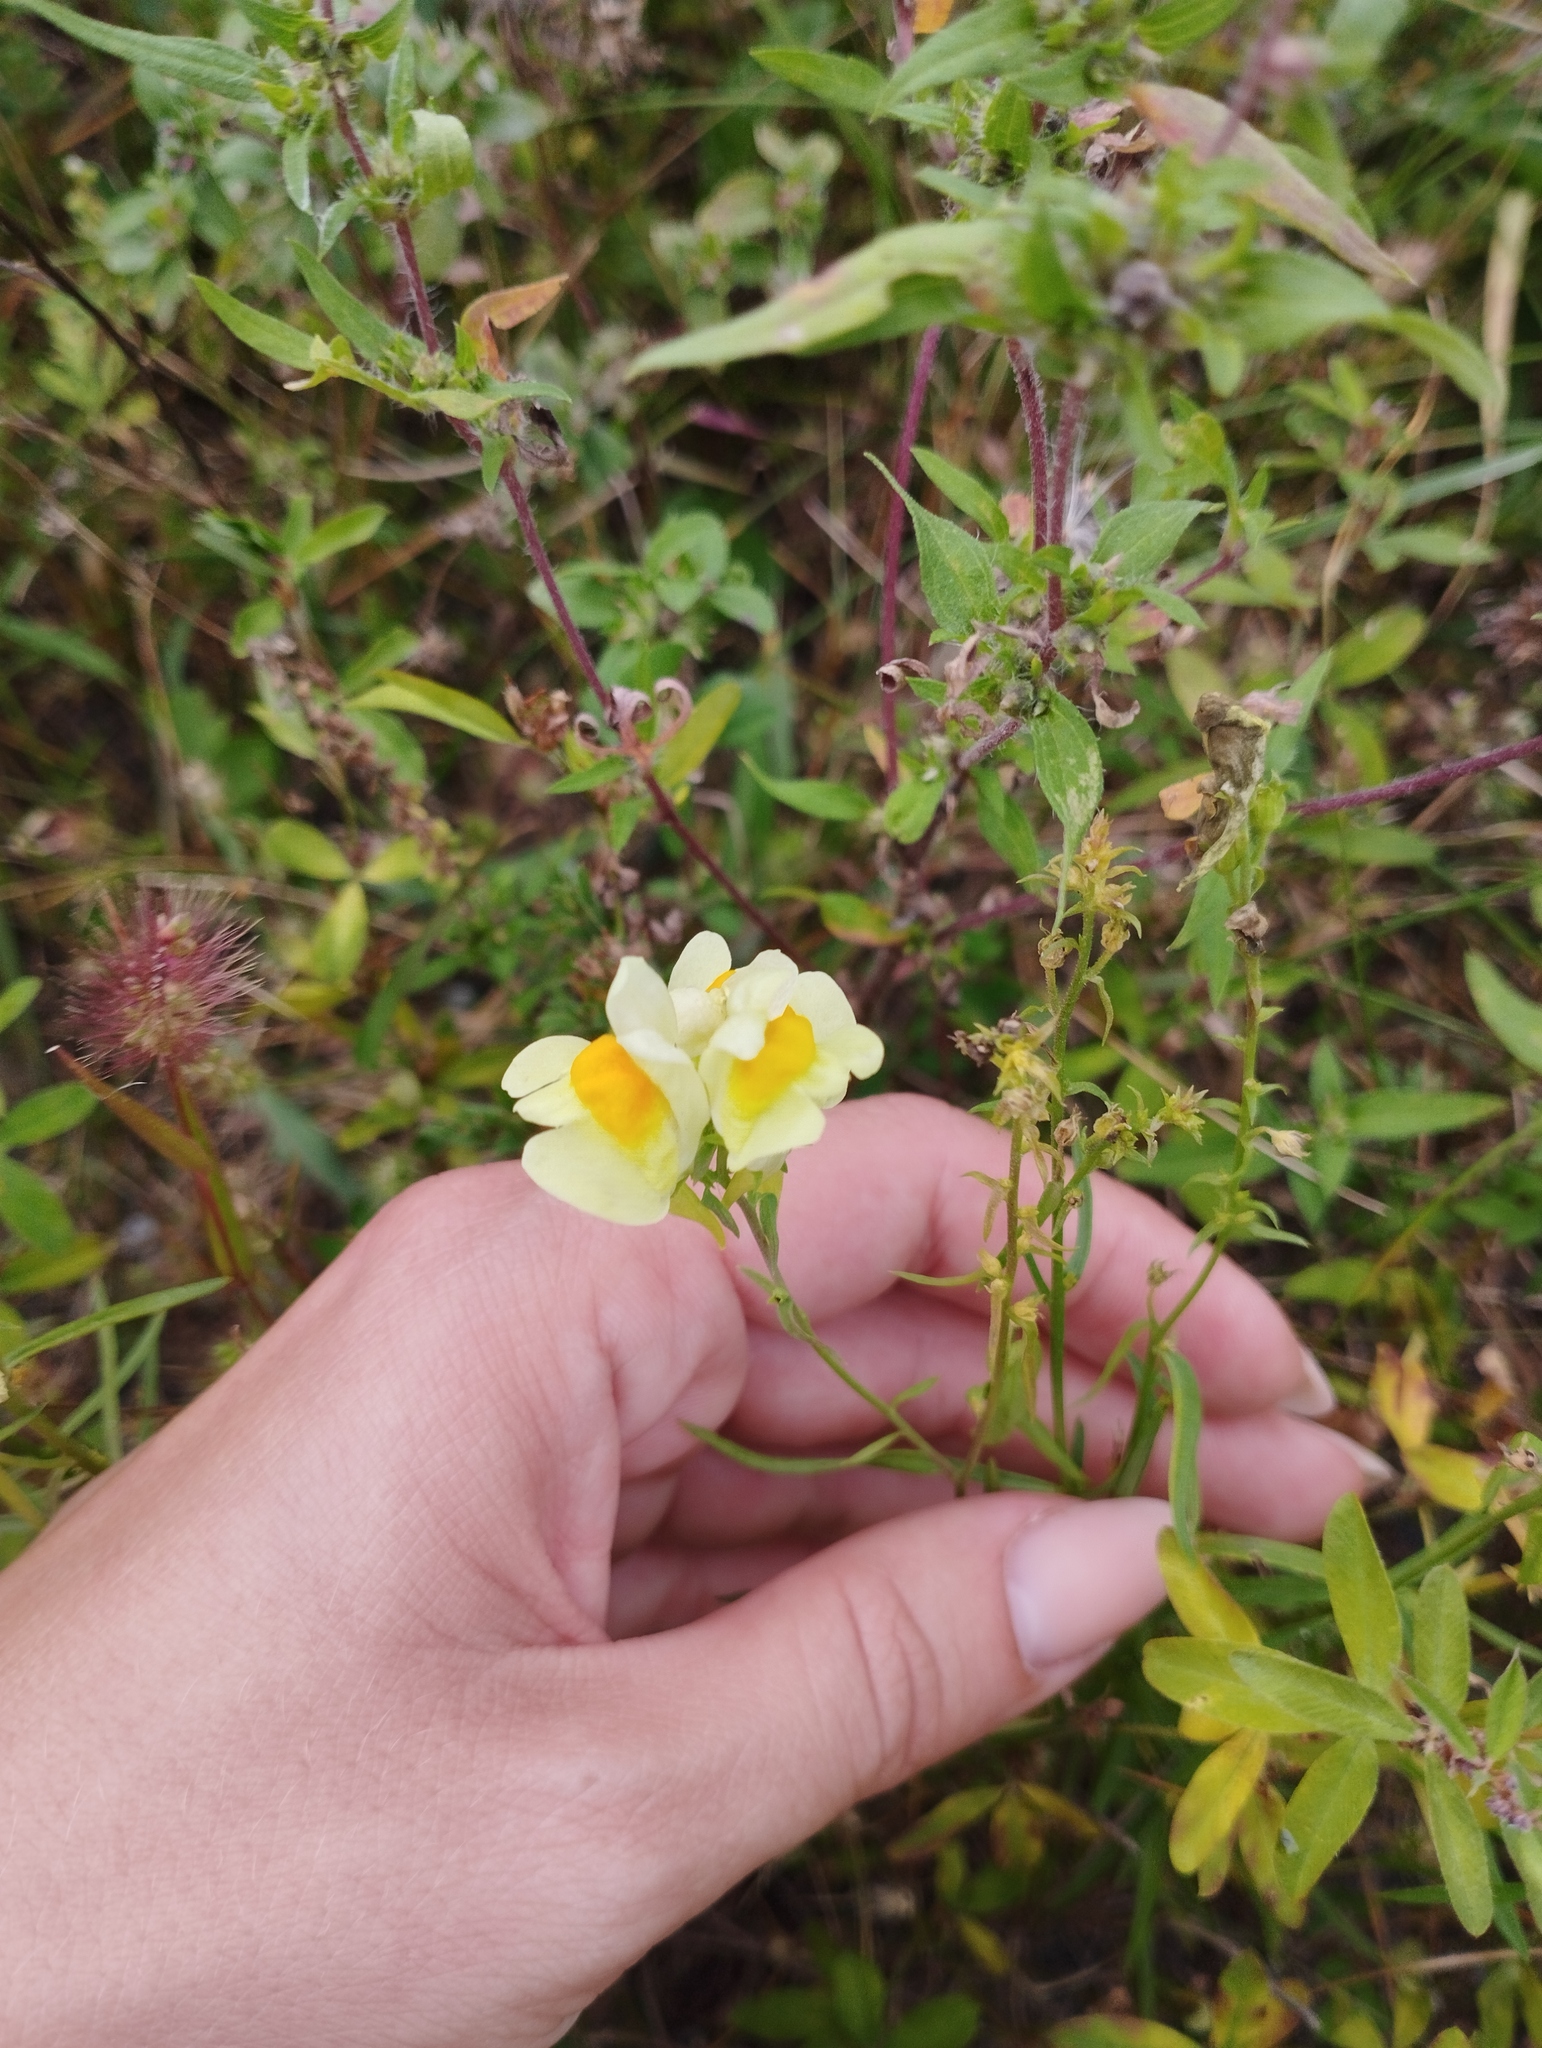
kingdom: Plantae
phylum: Tracheophyta
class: Magnoliopsida
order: Lamiales
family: Plantaginaceae
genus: Linaria
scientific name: Linaria vulgaris
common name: Butter and eggs
